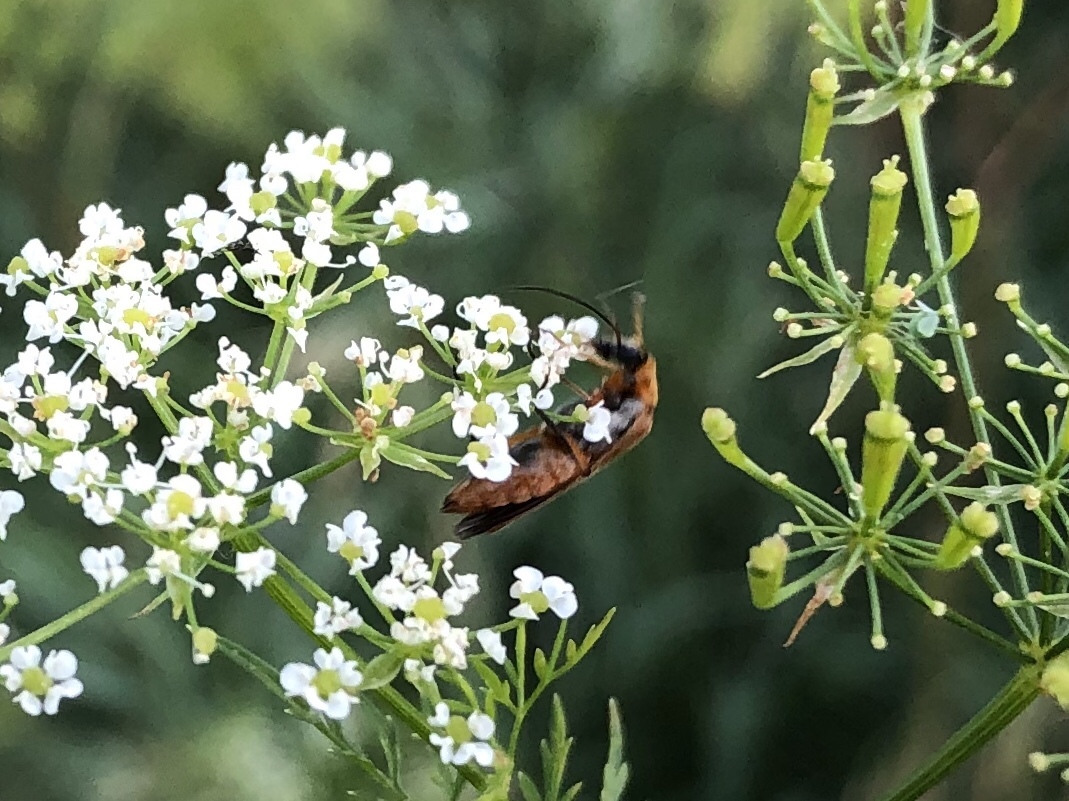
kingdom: Animalia
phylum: Arthropoda
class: Insecta
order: Coleoptera
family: Oedemeridae
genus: Oedemera
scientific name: Oedemera podagrariae
